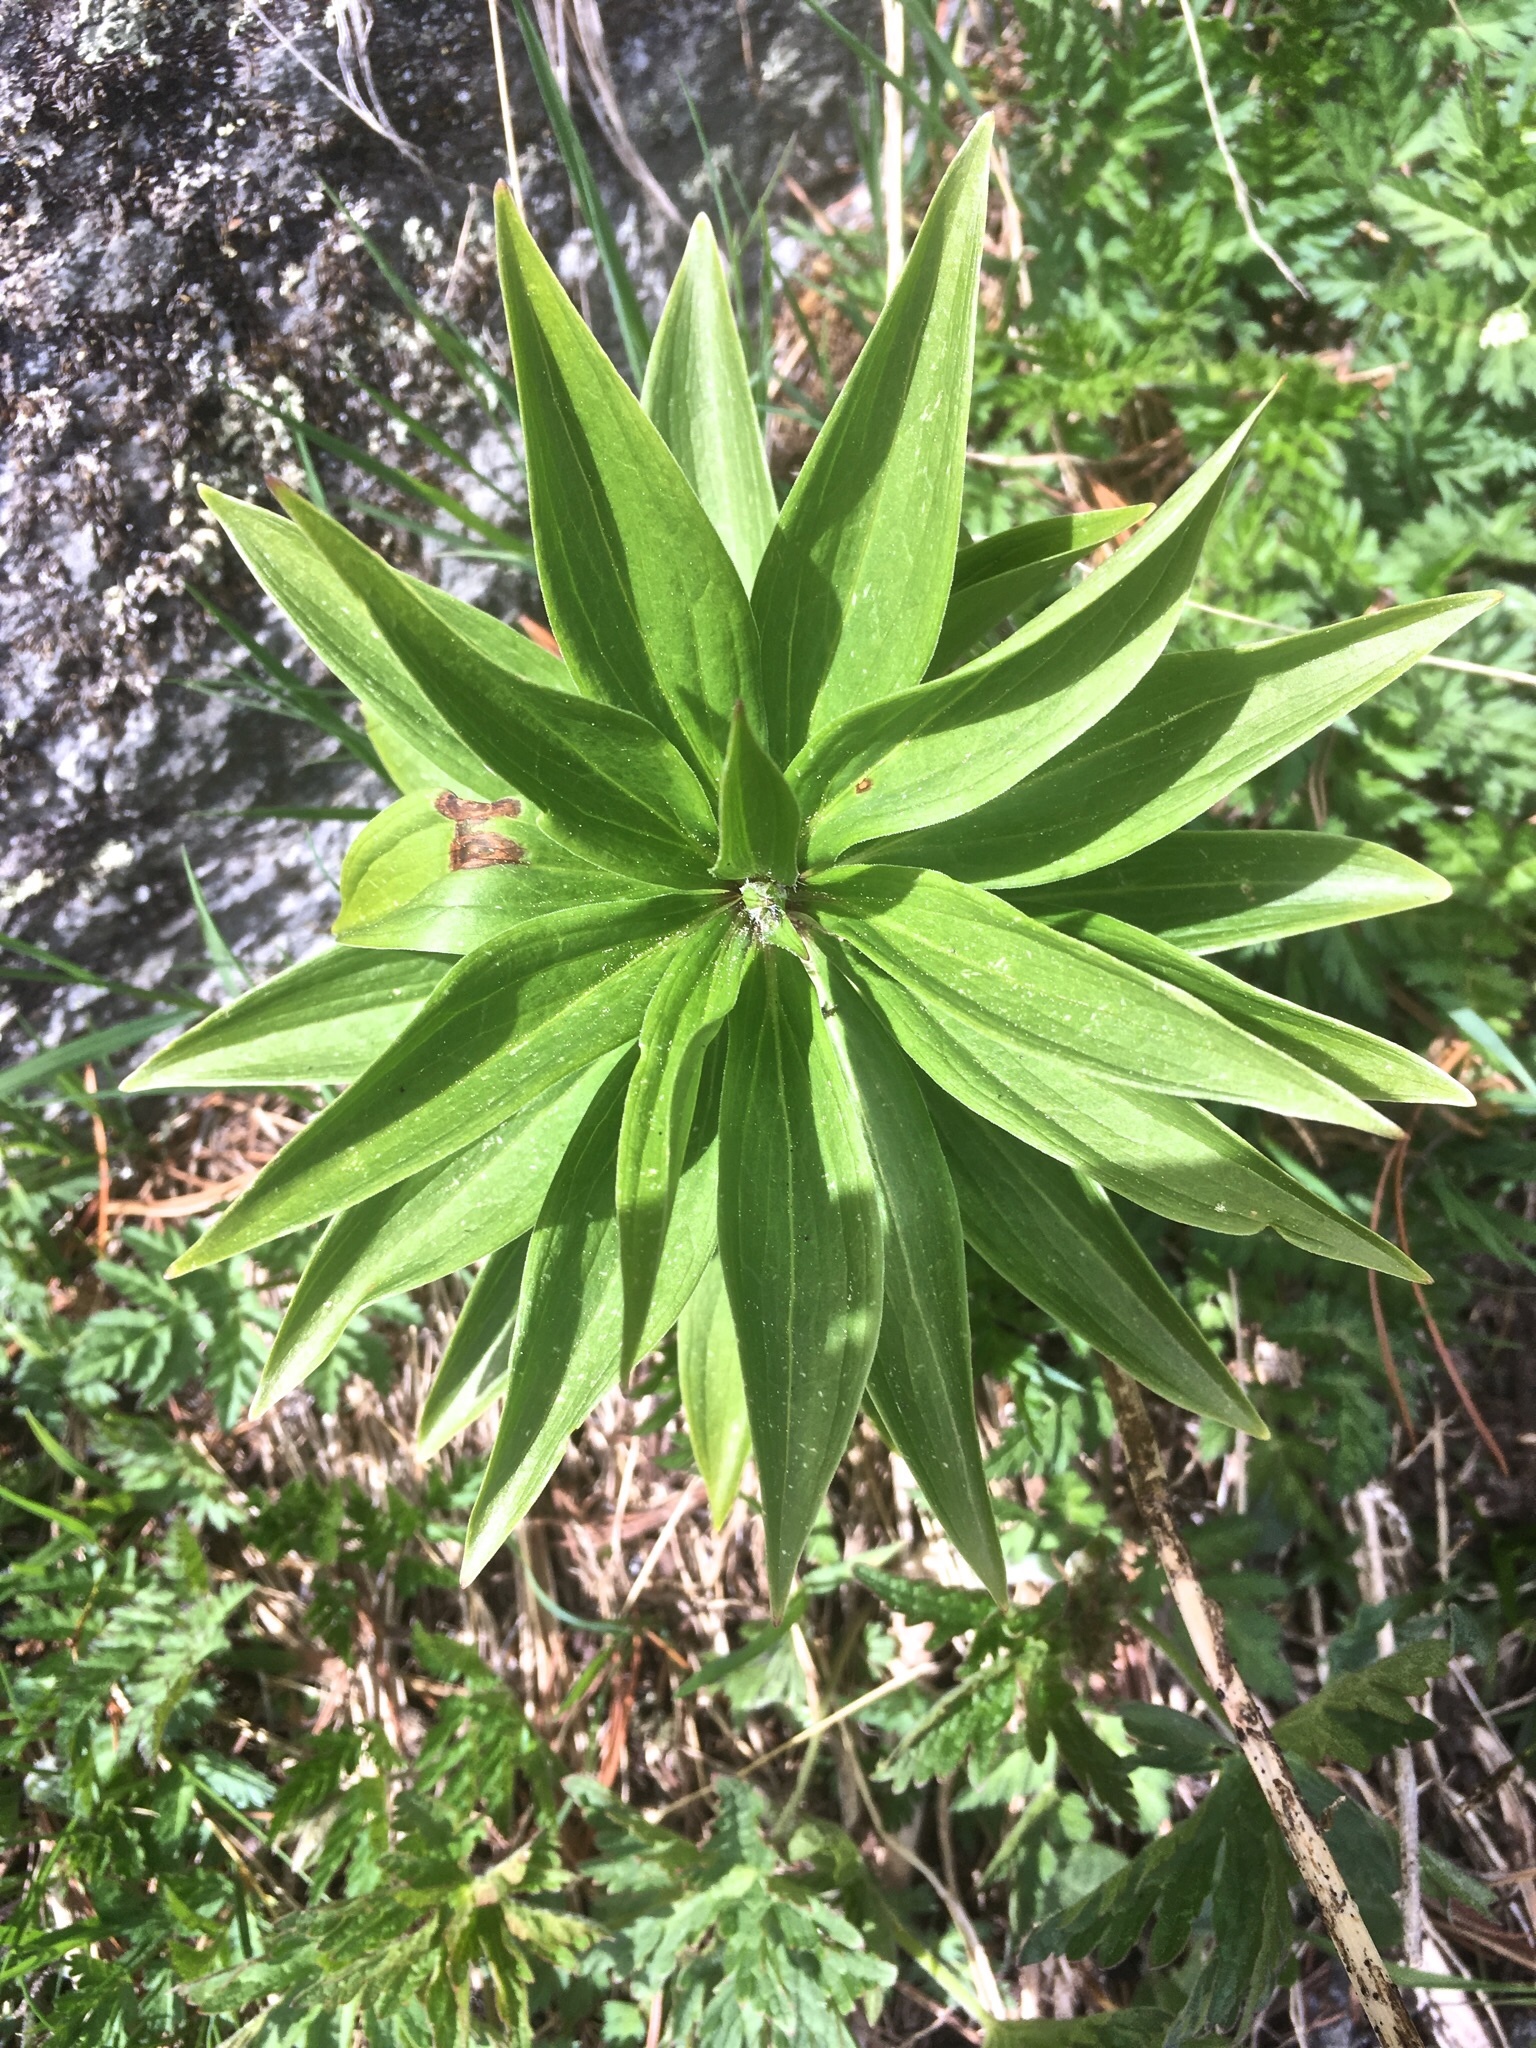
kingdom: Plantae
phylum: Tracheophyta
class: Liliopsida
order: Liliales
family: Liliaceae
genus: Lilium
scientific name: Lilium martagon
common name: Martagon lily
